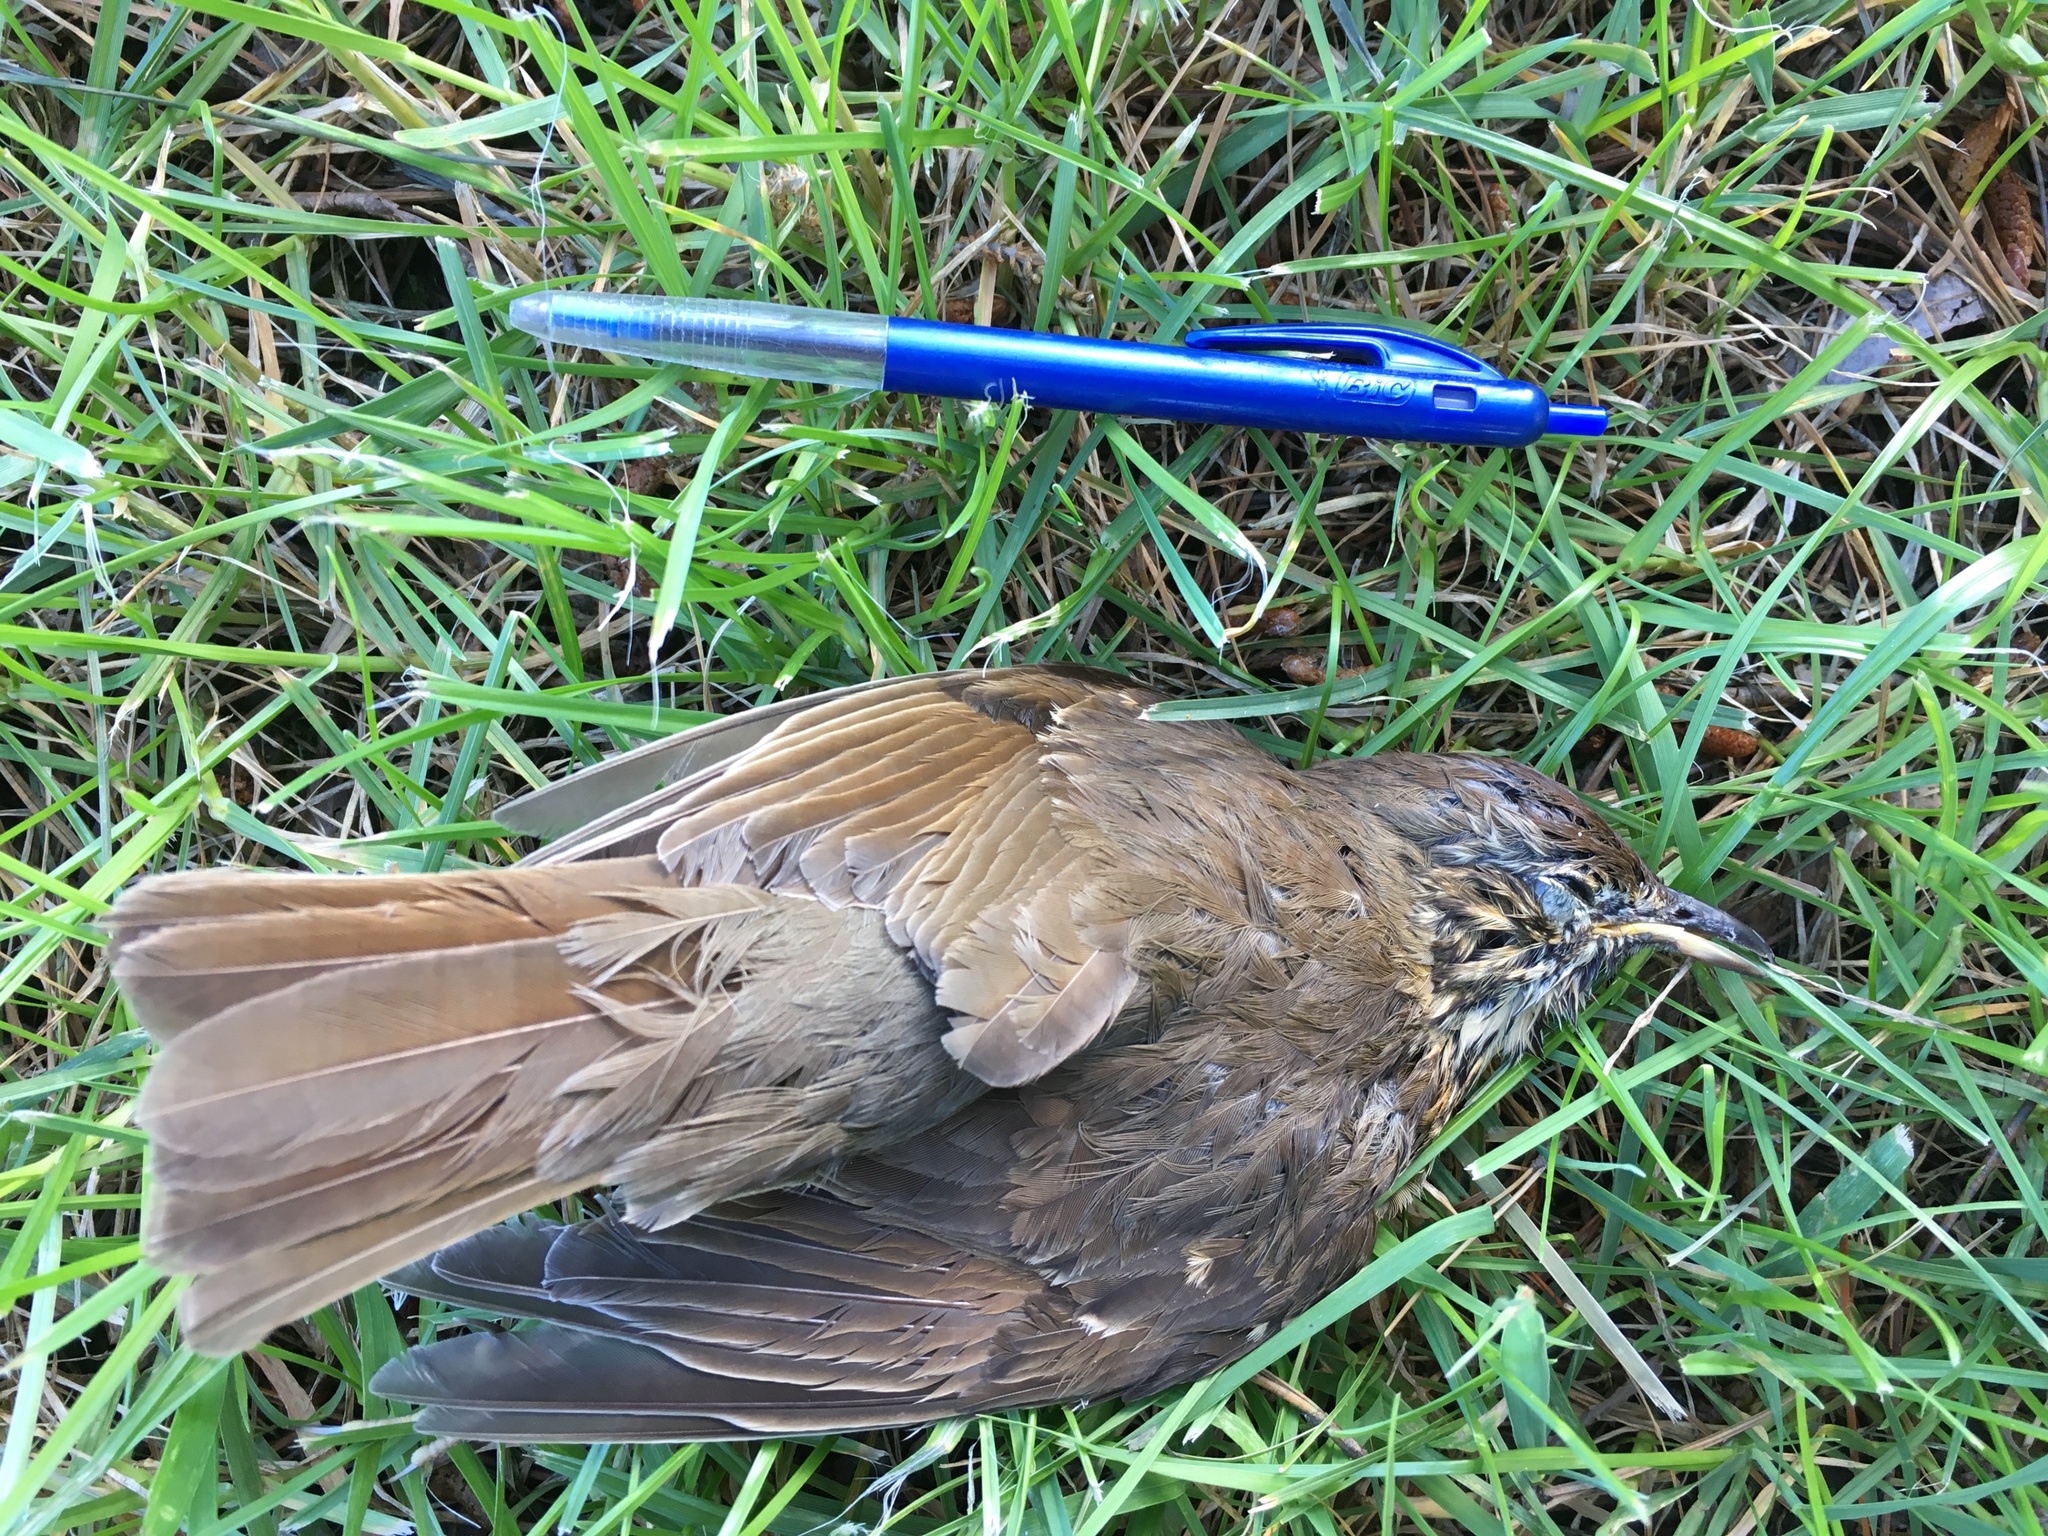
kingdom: Animalia
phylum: Chordata
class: Aves
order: Passeriformes
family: Turdidae
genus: Turdus
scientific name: Turdus philomelos
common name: Song thrush
